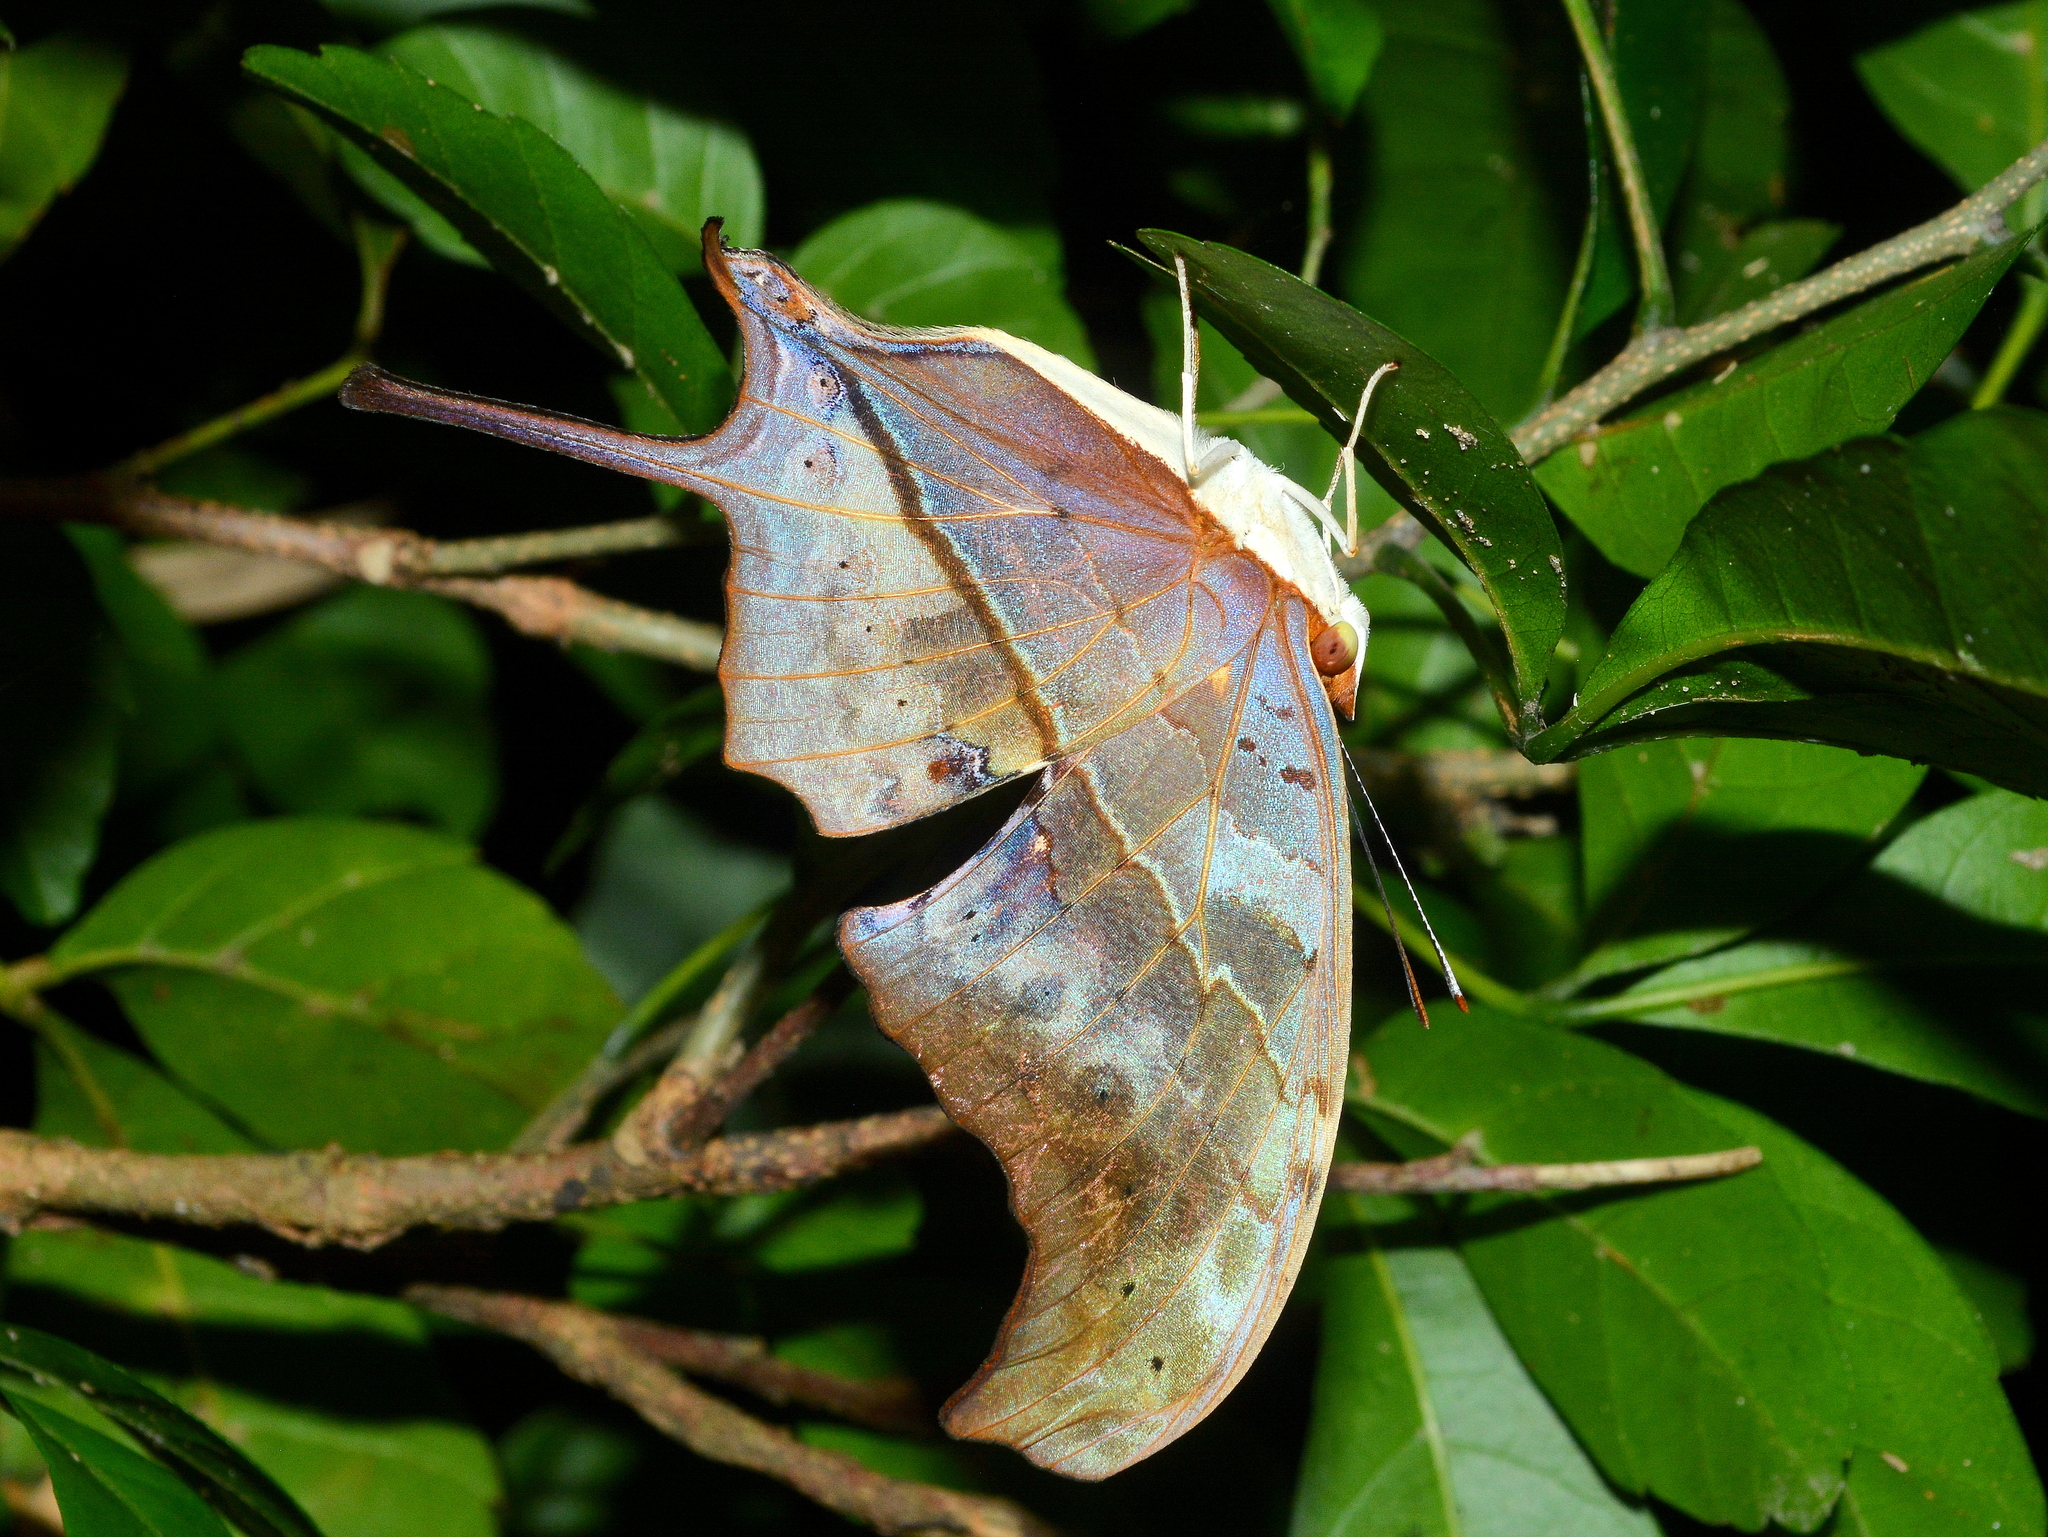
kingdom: Animalia
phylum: Arthropoda
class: Insecta
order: Lepidoptera
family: Nymphalidae
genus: Marpesia
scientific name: Marpesia petreus
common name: Red dagger wing
